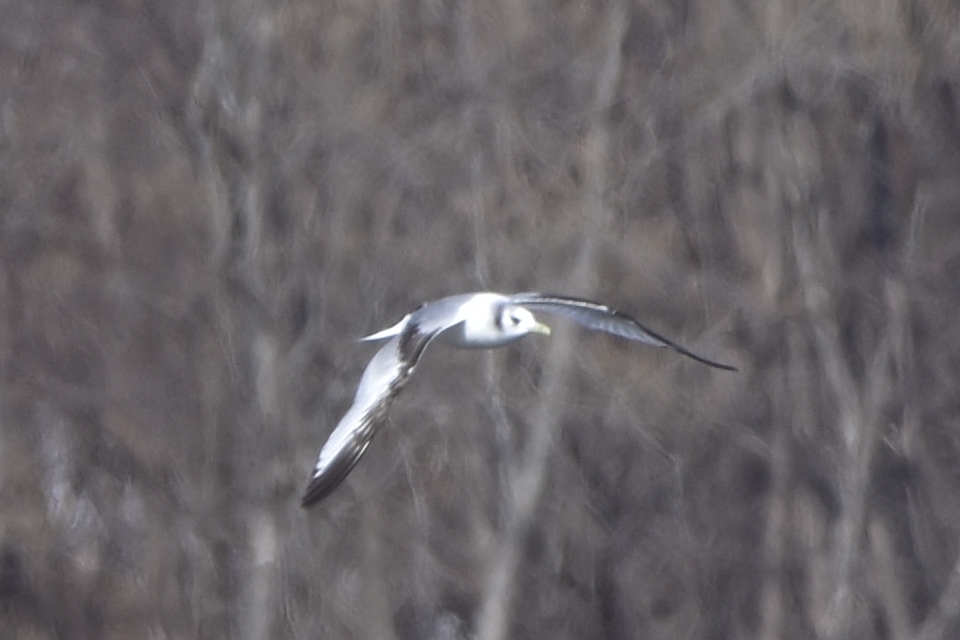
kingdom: Animalia
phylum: Chordata
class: Aves
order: Charadriiformes
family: Laridae
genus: Rissa
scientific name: Rissa tridactyla
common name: Black-legged kittiwake
